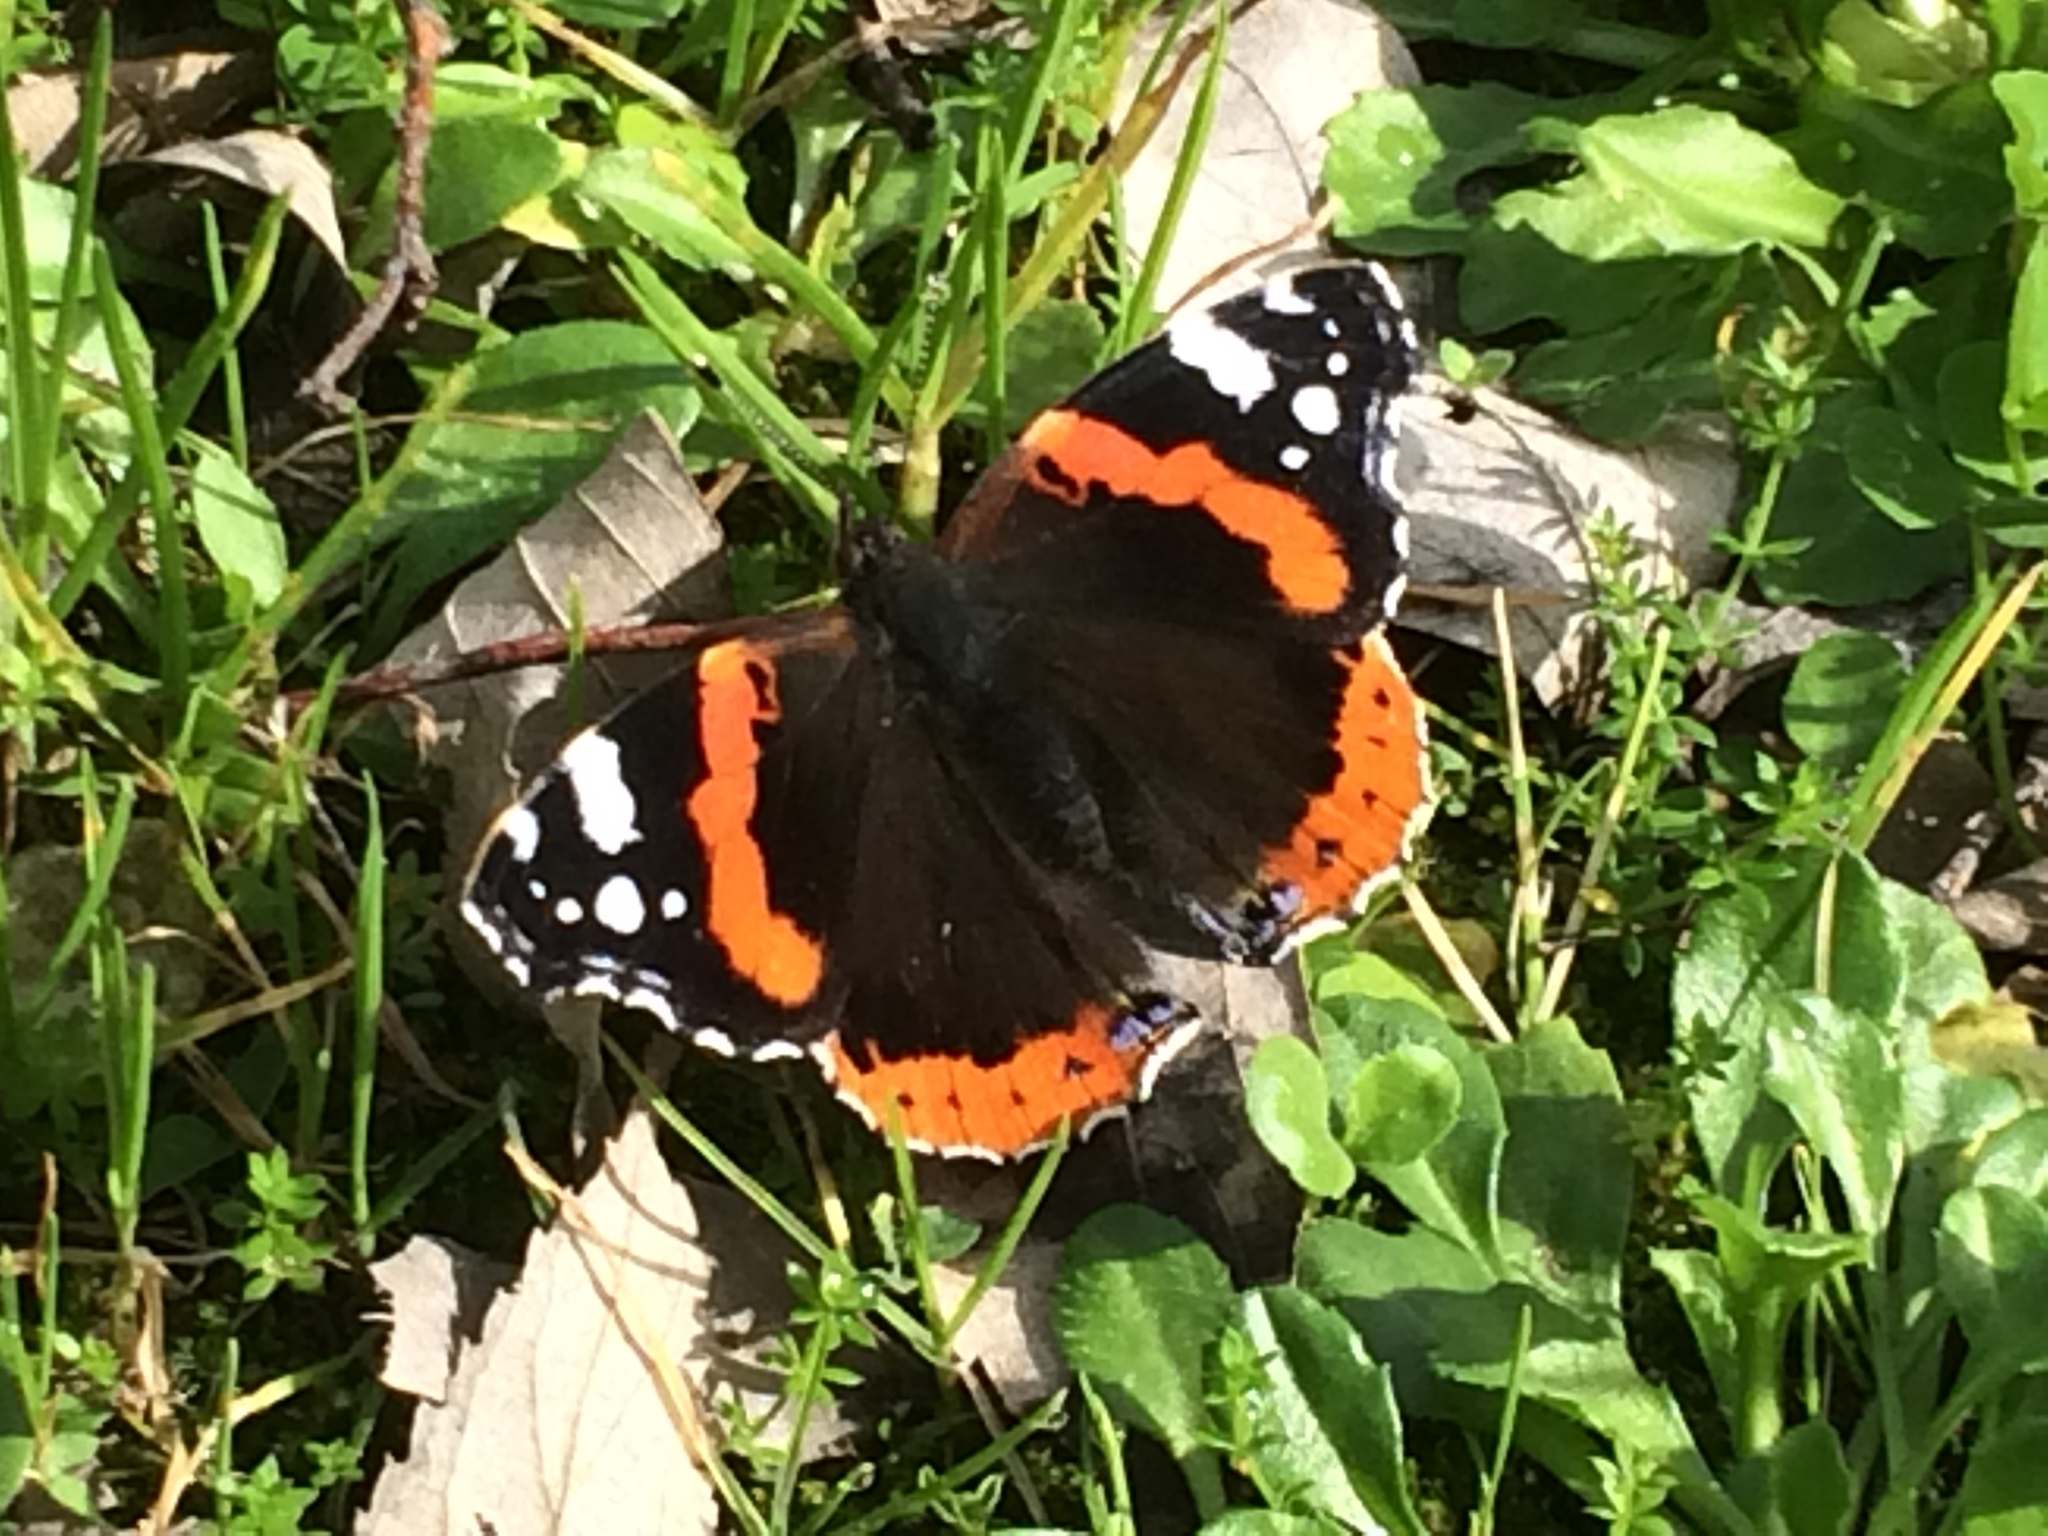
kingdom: Animalia
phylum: Arthropoda
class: Insecta
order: Lepidoptera
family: Nymphalidae
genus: Vanessa
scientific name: Vanessa atalanta
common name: Red admiral
